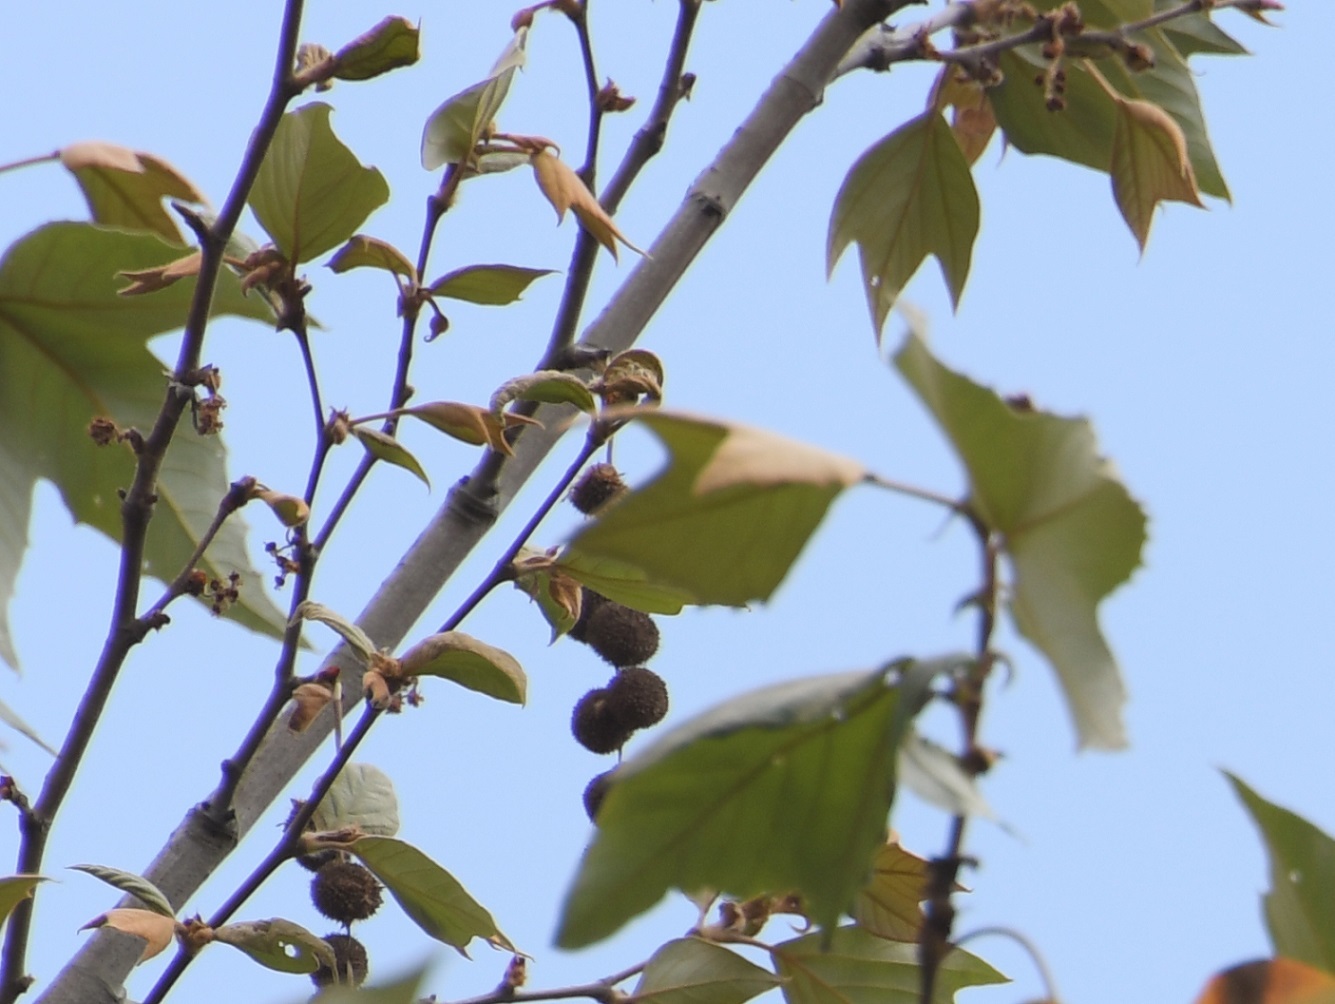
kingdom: Plantae
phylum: Tracheophyta
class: Magnoliopsida
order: Proteales
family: Platanaceae
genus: Platanus
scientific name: Platanus mexicana
